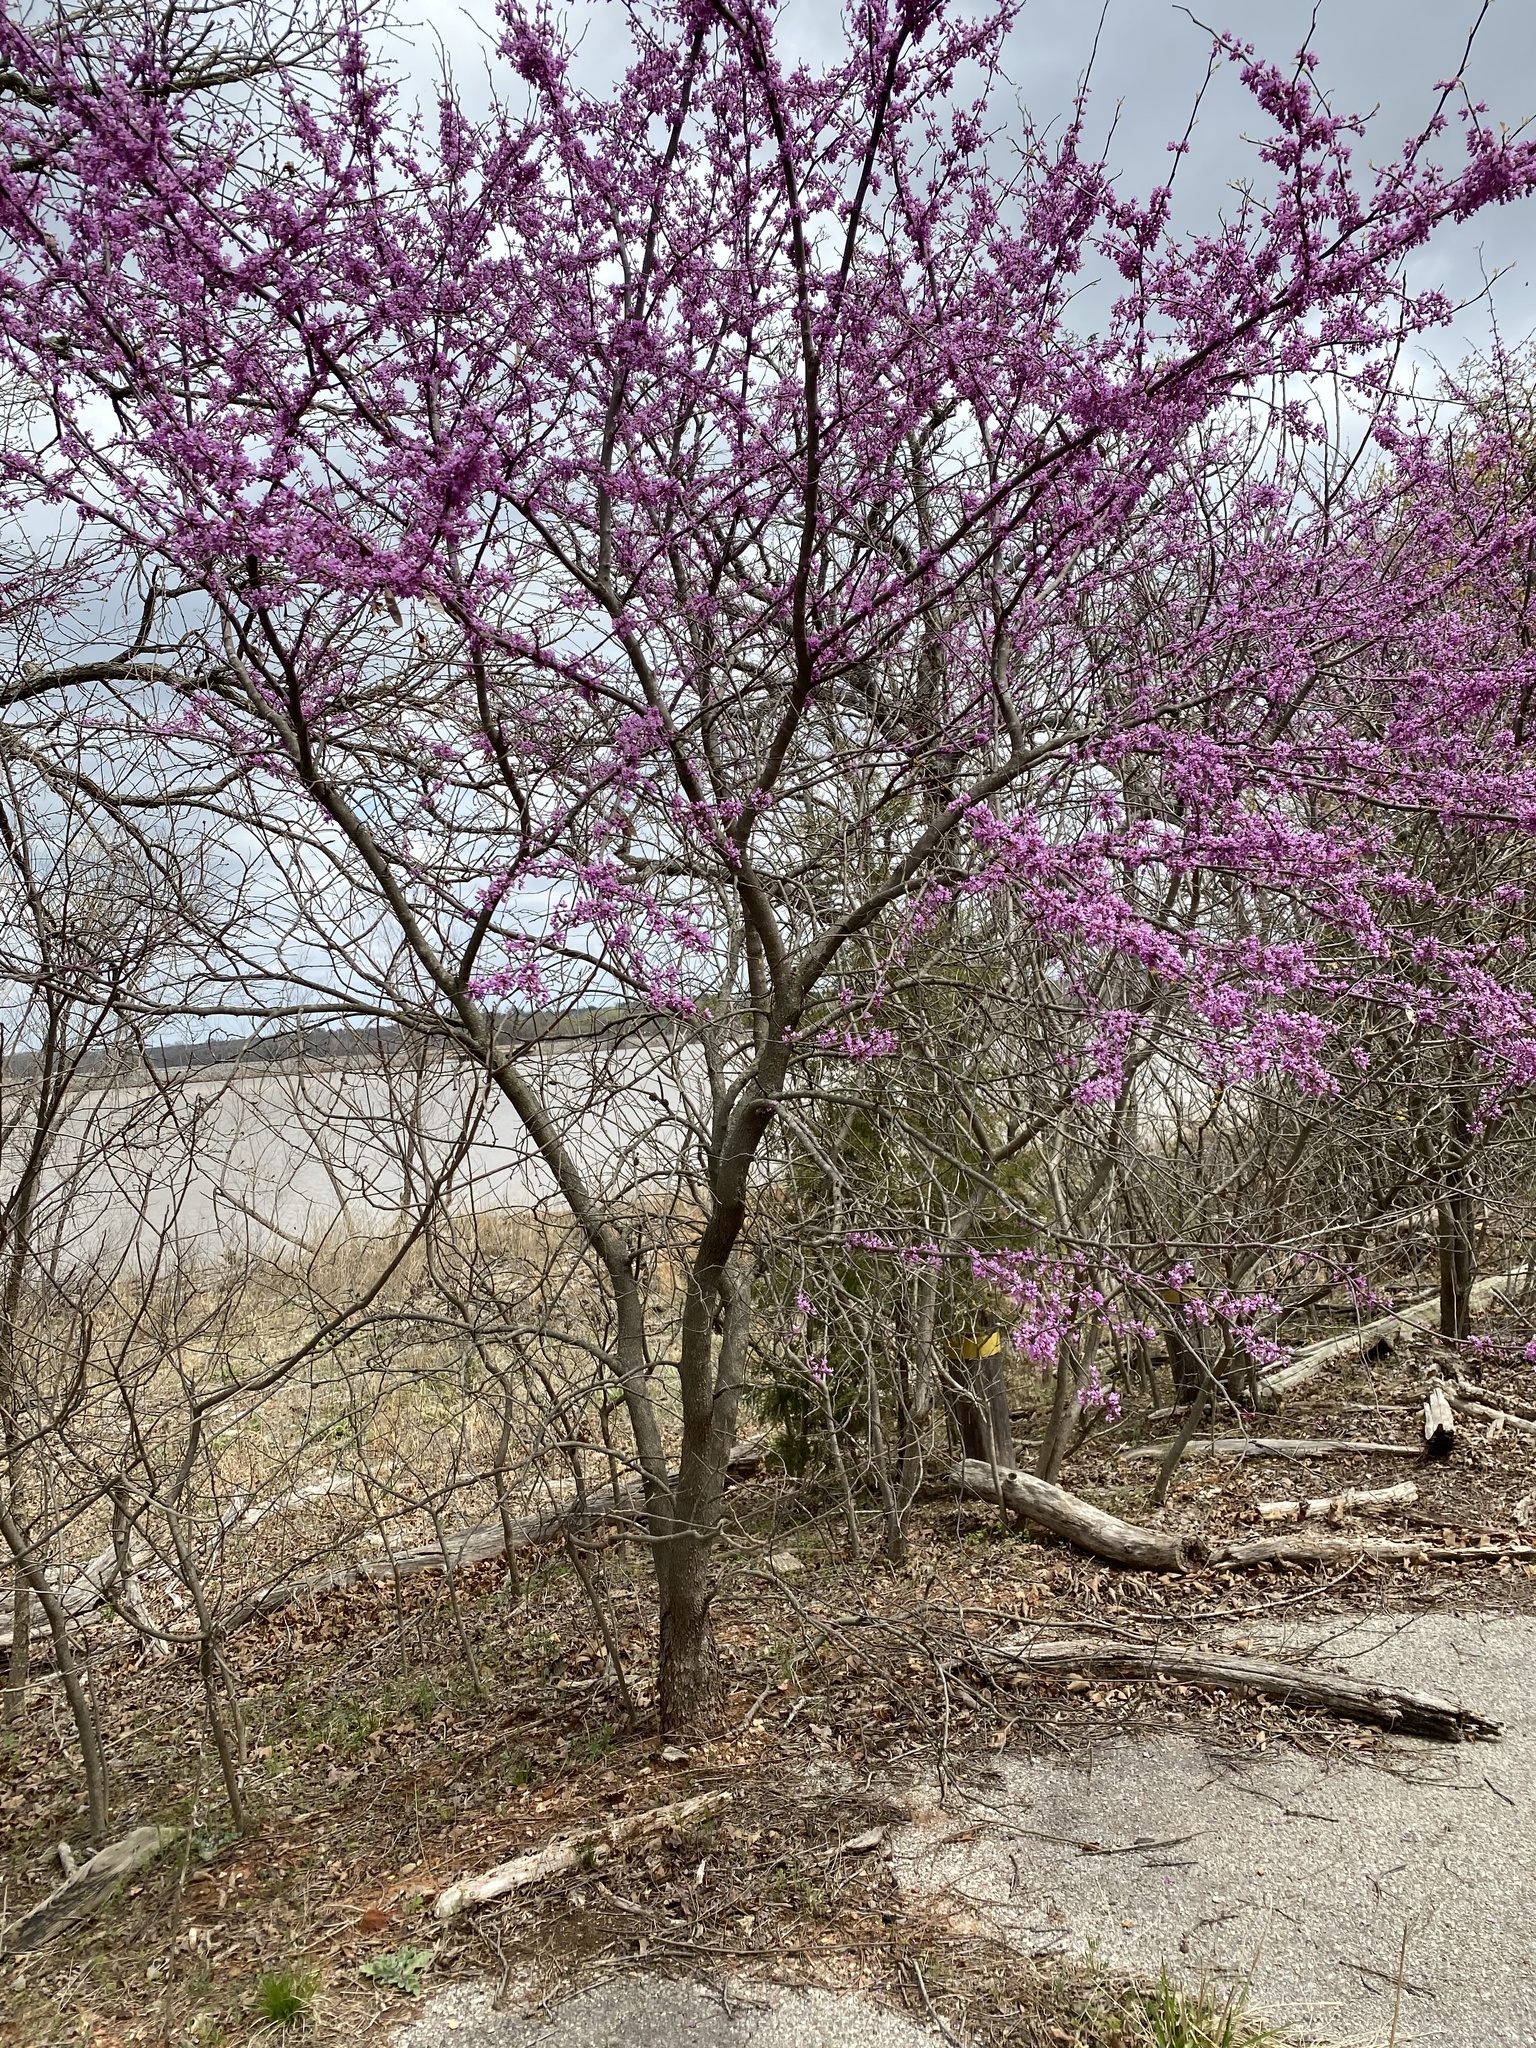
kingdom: Plantae
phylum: Tracheophyta
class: Magnoliopsida
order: Fabales
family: Fabaceae
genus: Cercis
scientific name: Cercis canadensis
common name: Eastern redbud
